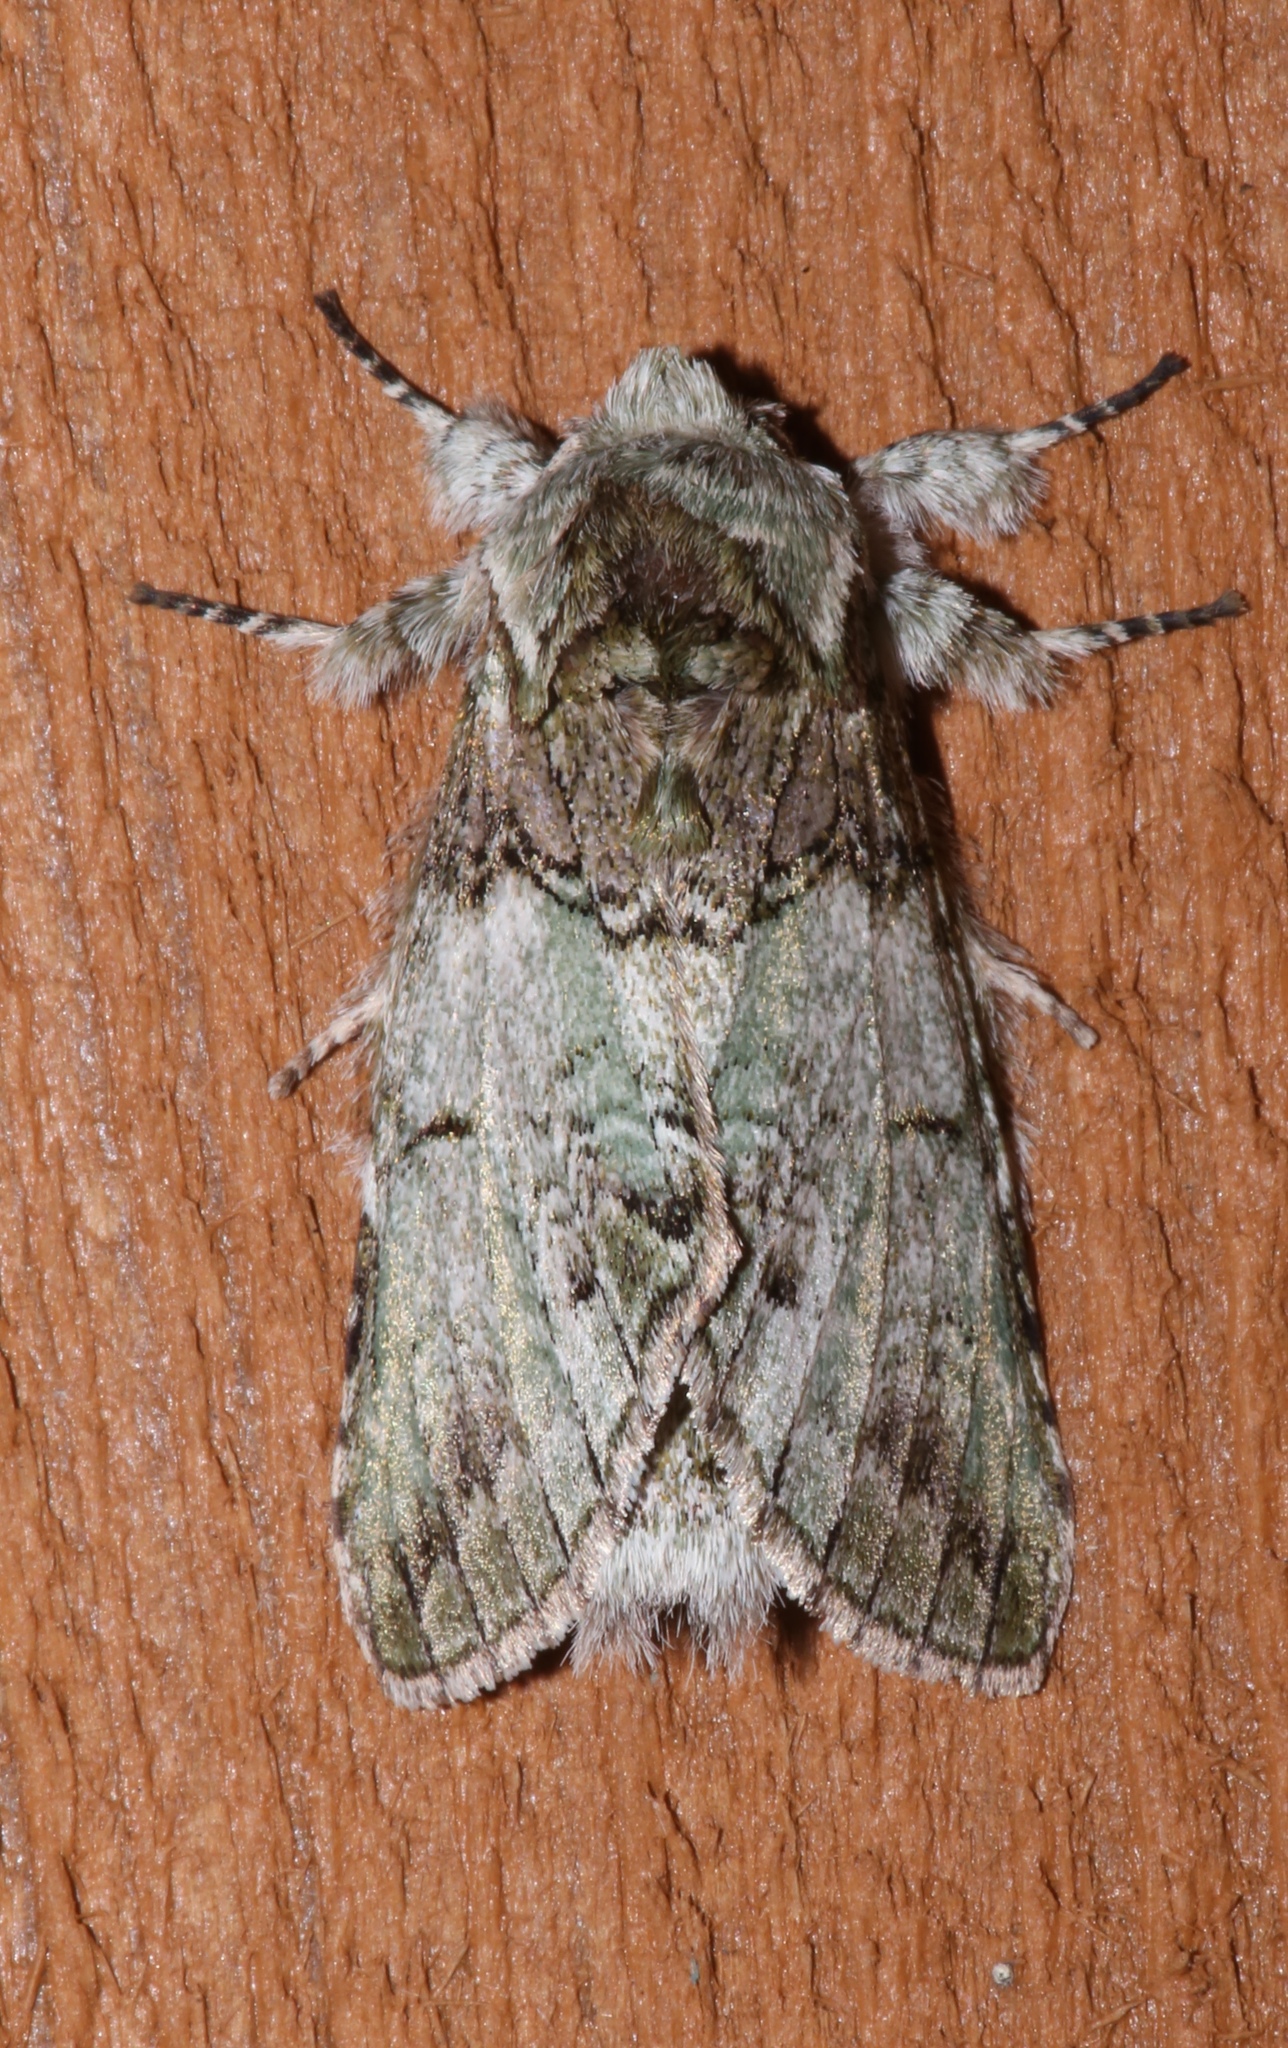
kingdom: Animalia
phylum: Arthropoda
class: Insecta
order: Lepidoptera
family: Notodontidae
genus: Macrurocampa
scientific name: Macrurocampa marthesia
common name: Mottled prominent
